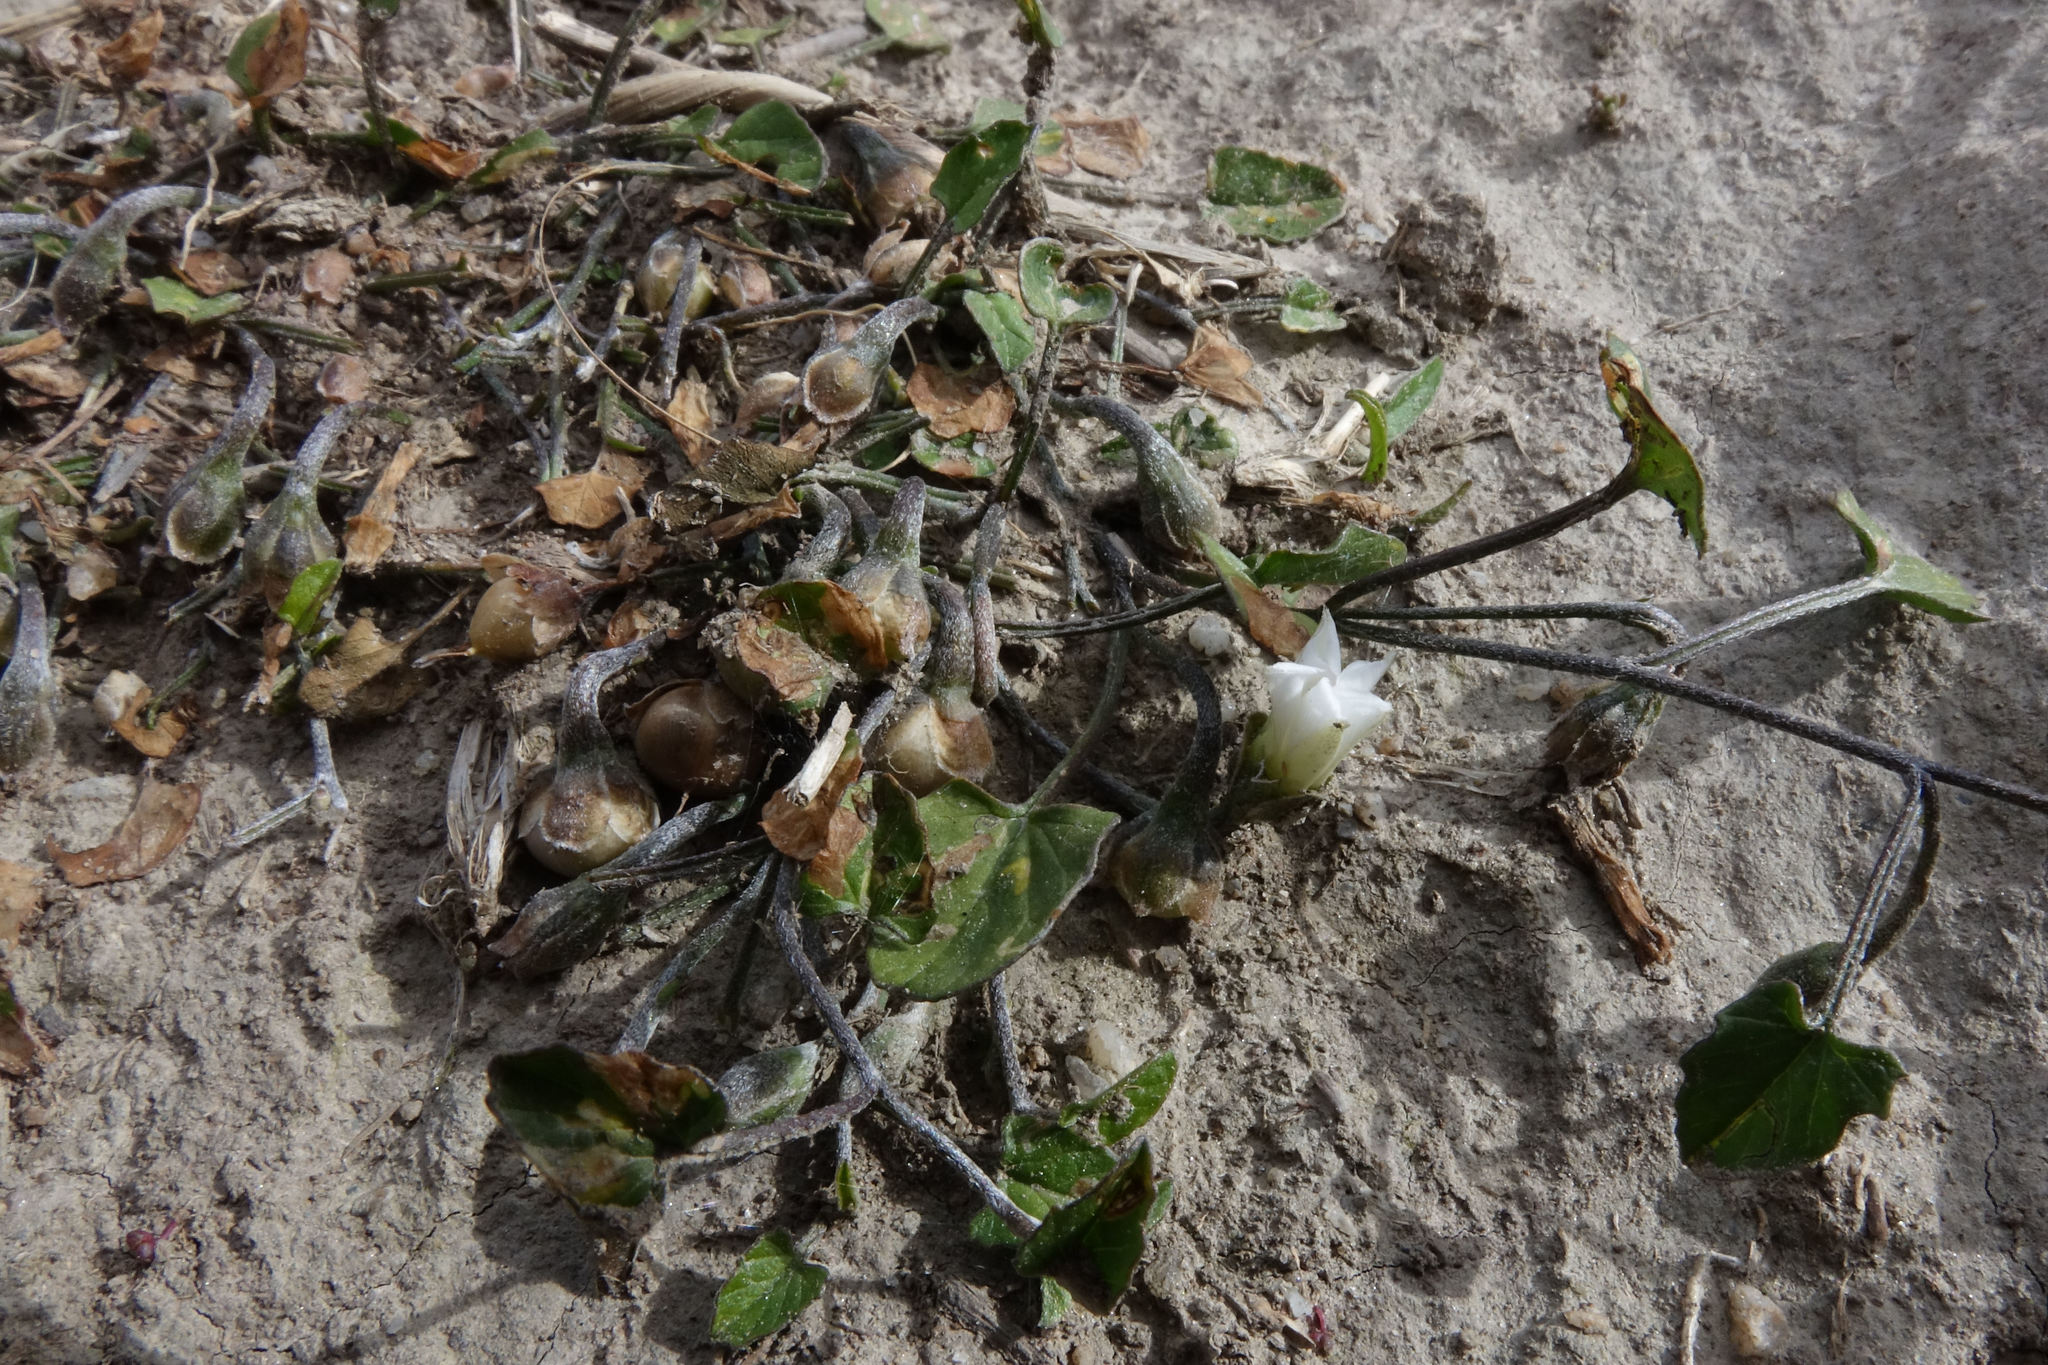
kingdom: Plantae
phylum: Tracheophyta
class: Magnoliopsida
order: Solanales
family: Convolvulaceae
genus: Convolvulus
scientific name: Convolvulus waitaha
